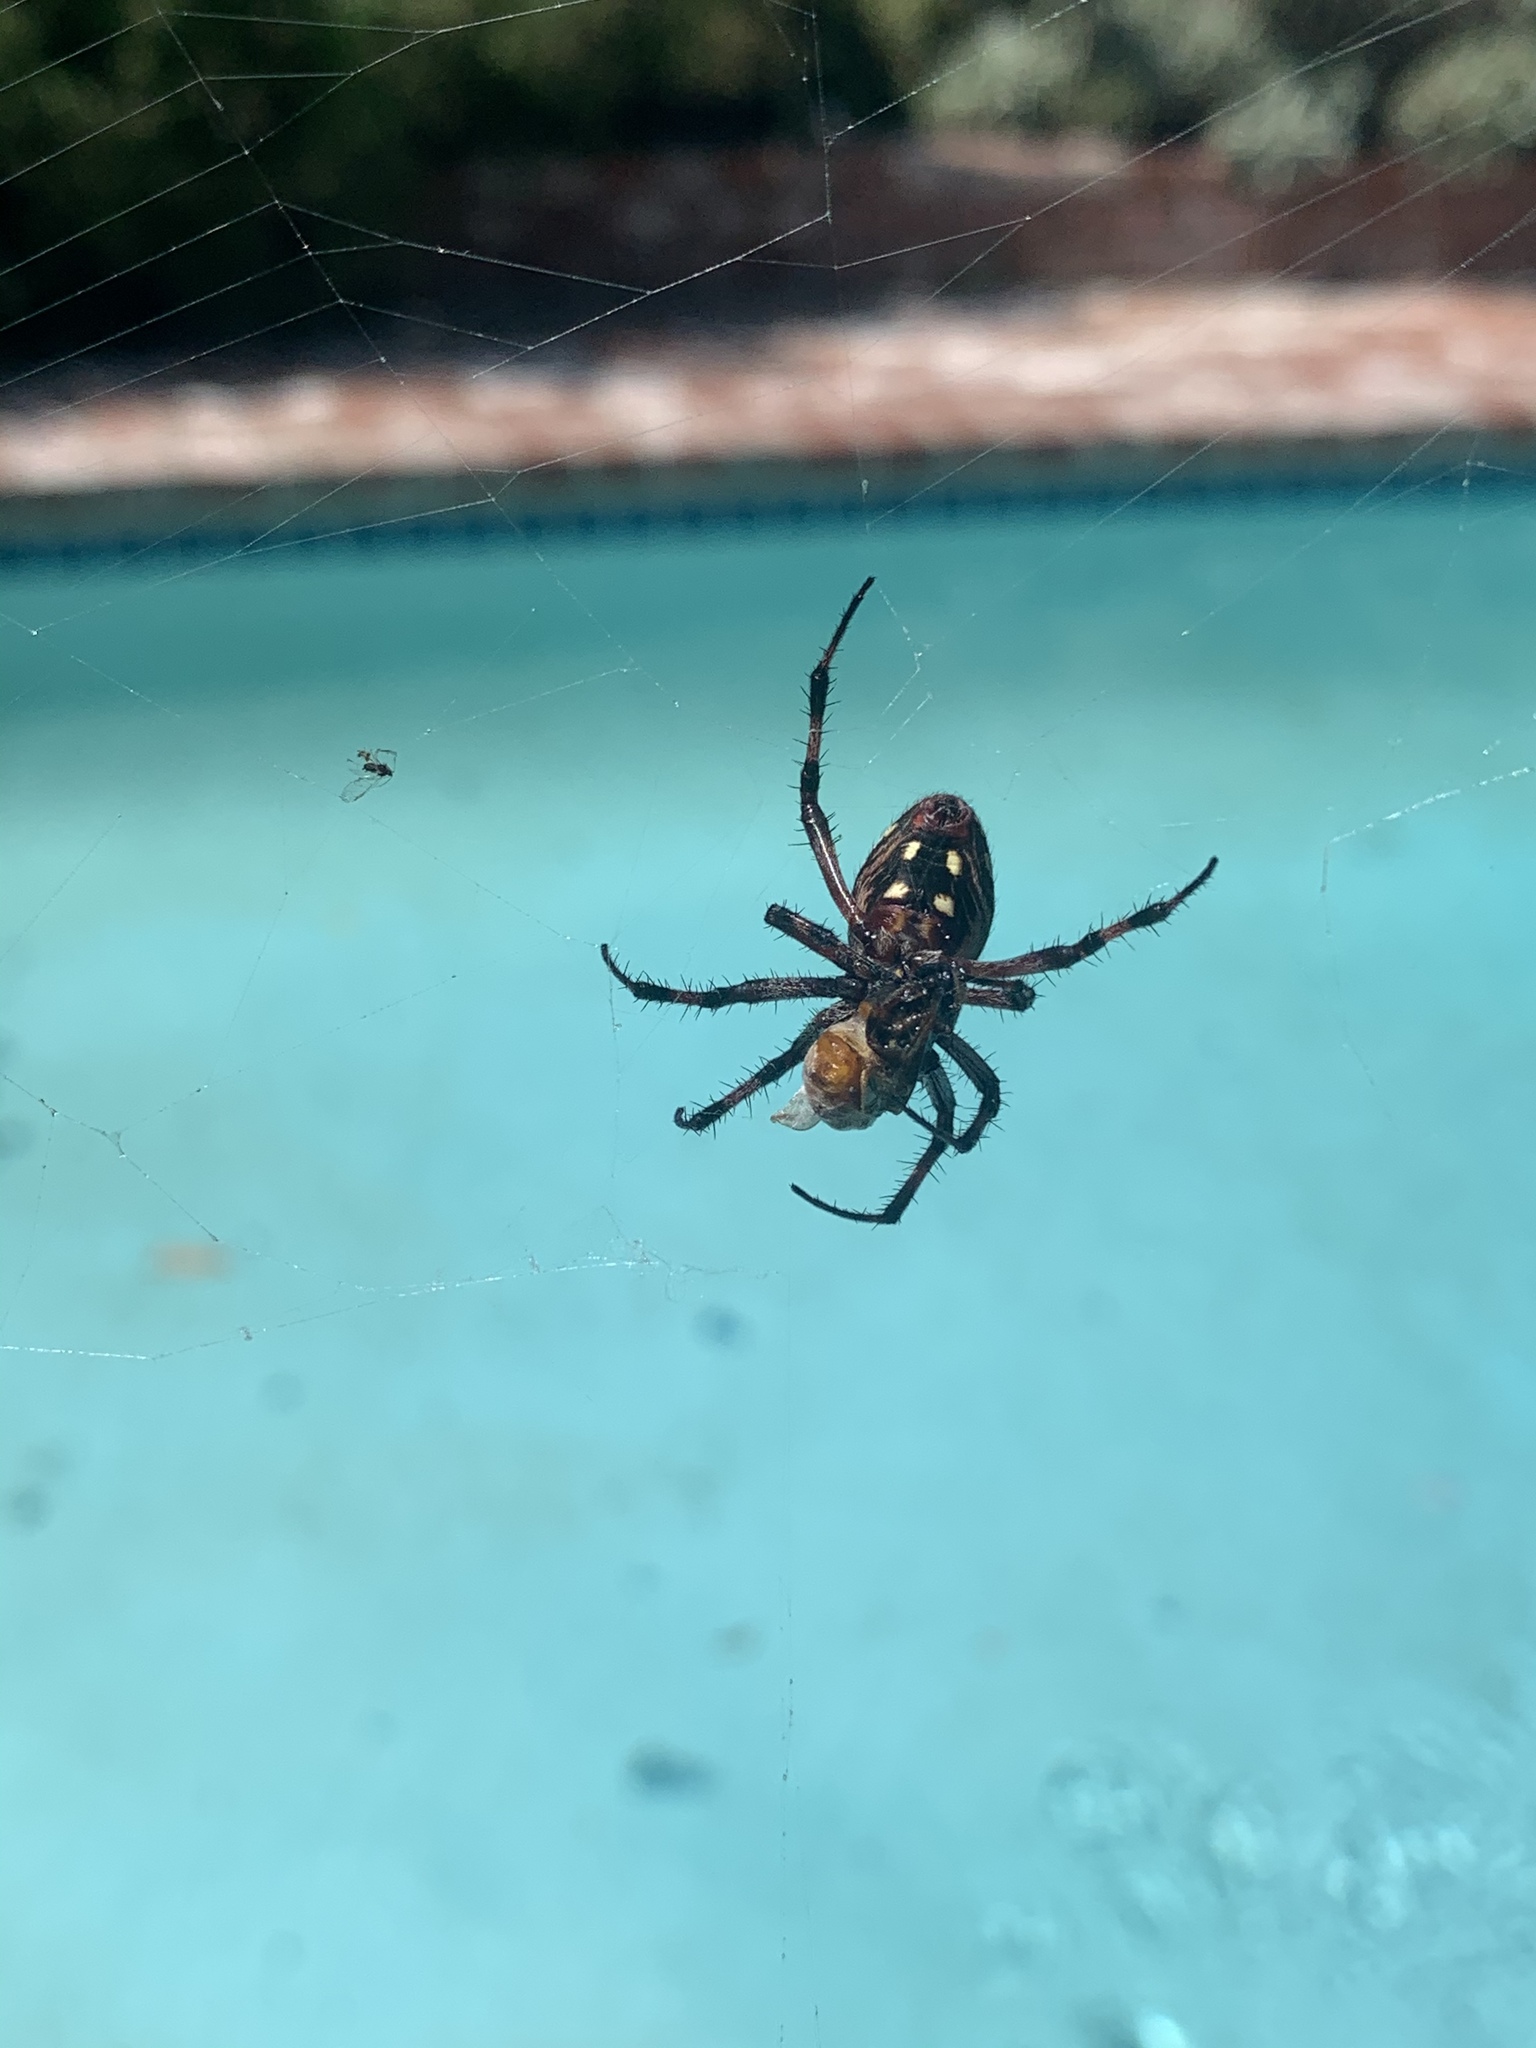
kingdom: Animalia
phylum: Arthropoda
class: Arachnida
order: Araneae
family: Araneidae
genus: Neoscona
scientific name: Neoscona oaxacensis
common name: Orb weavers
